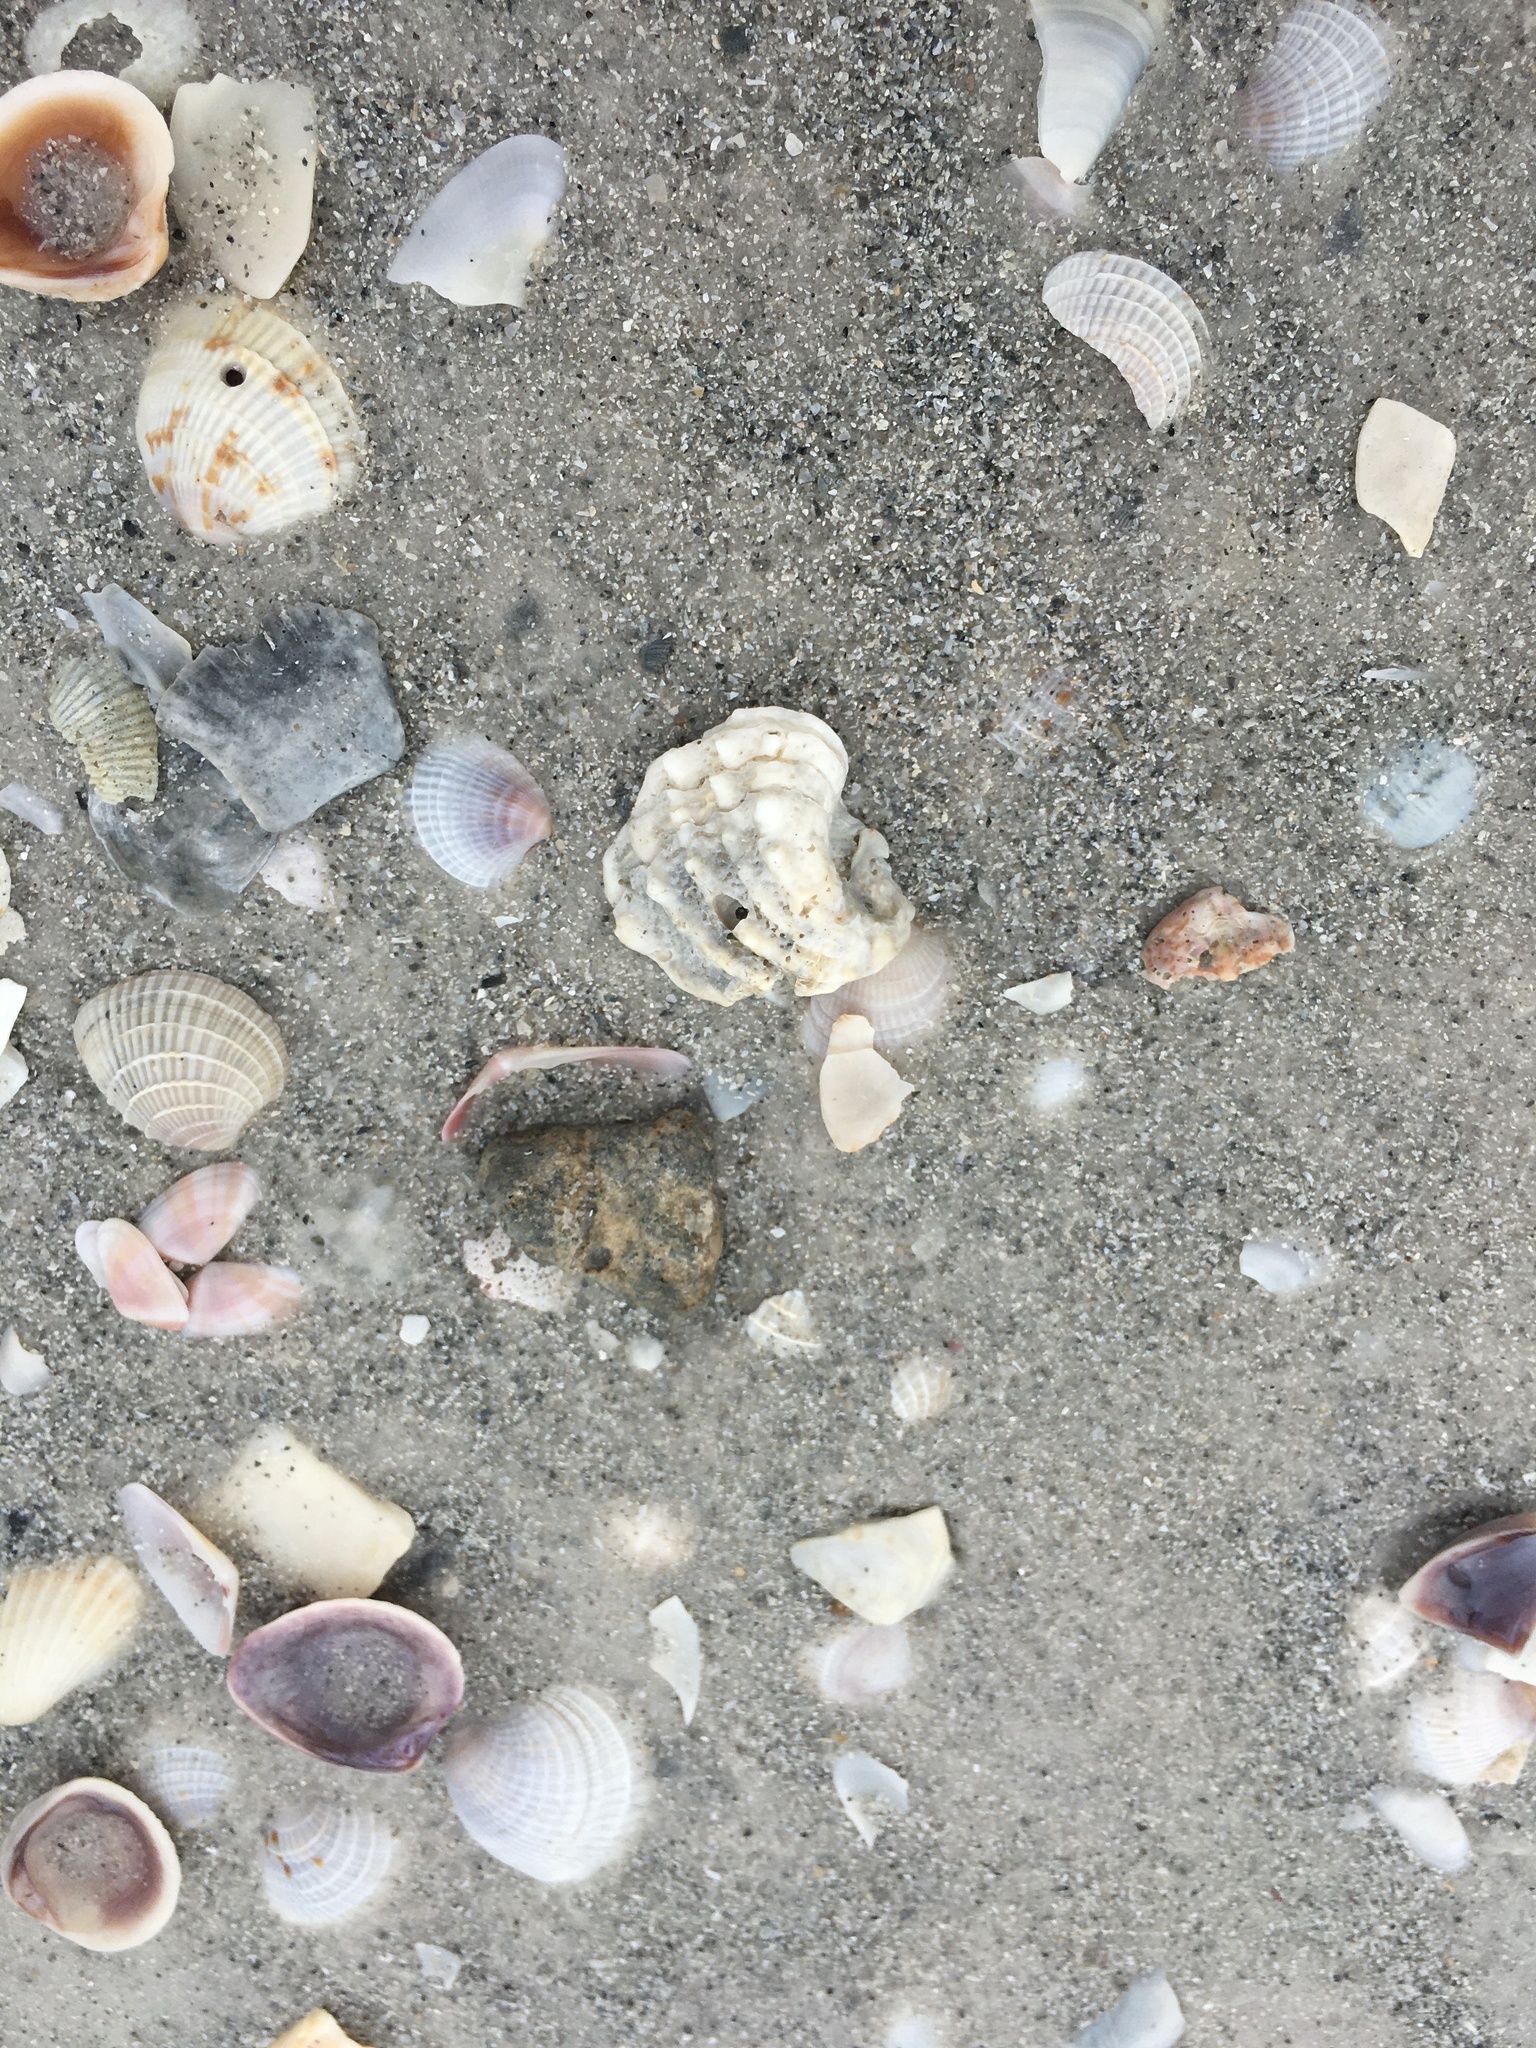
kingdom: Animalia
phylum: Mollusca
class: Bivalvia
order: Venerida
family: Chamidae
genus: Arcinella
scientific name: Arcinella cornuta
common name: Florida spiny jewel box
